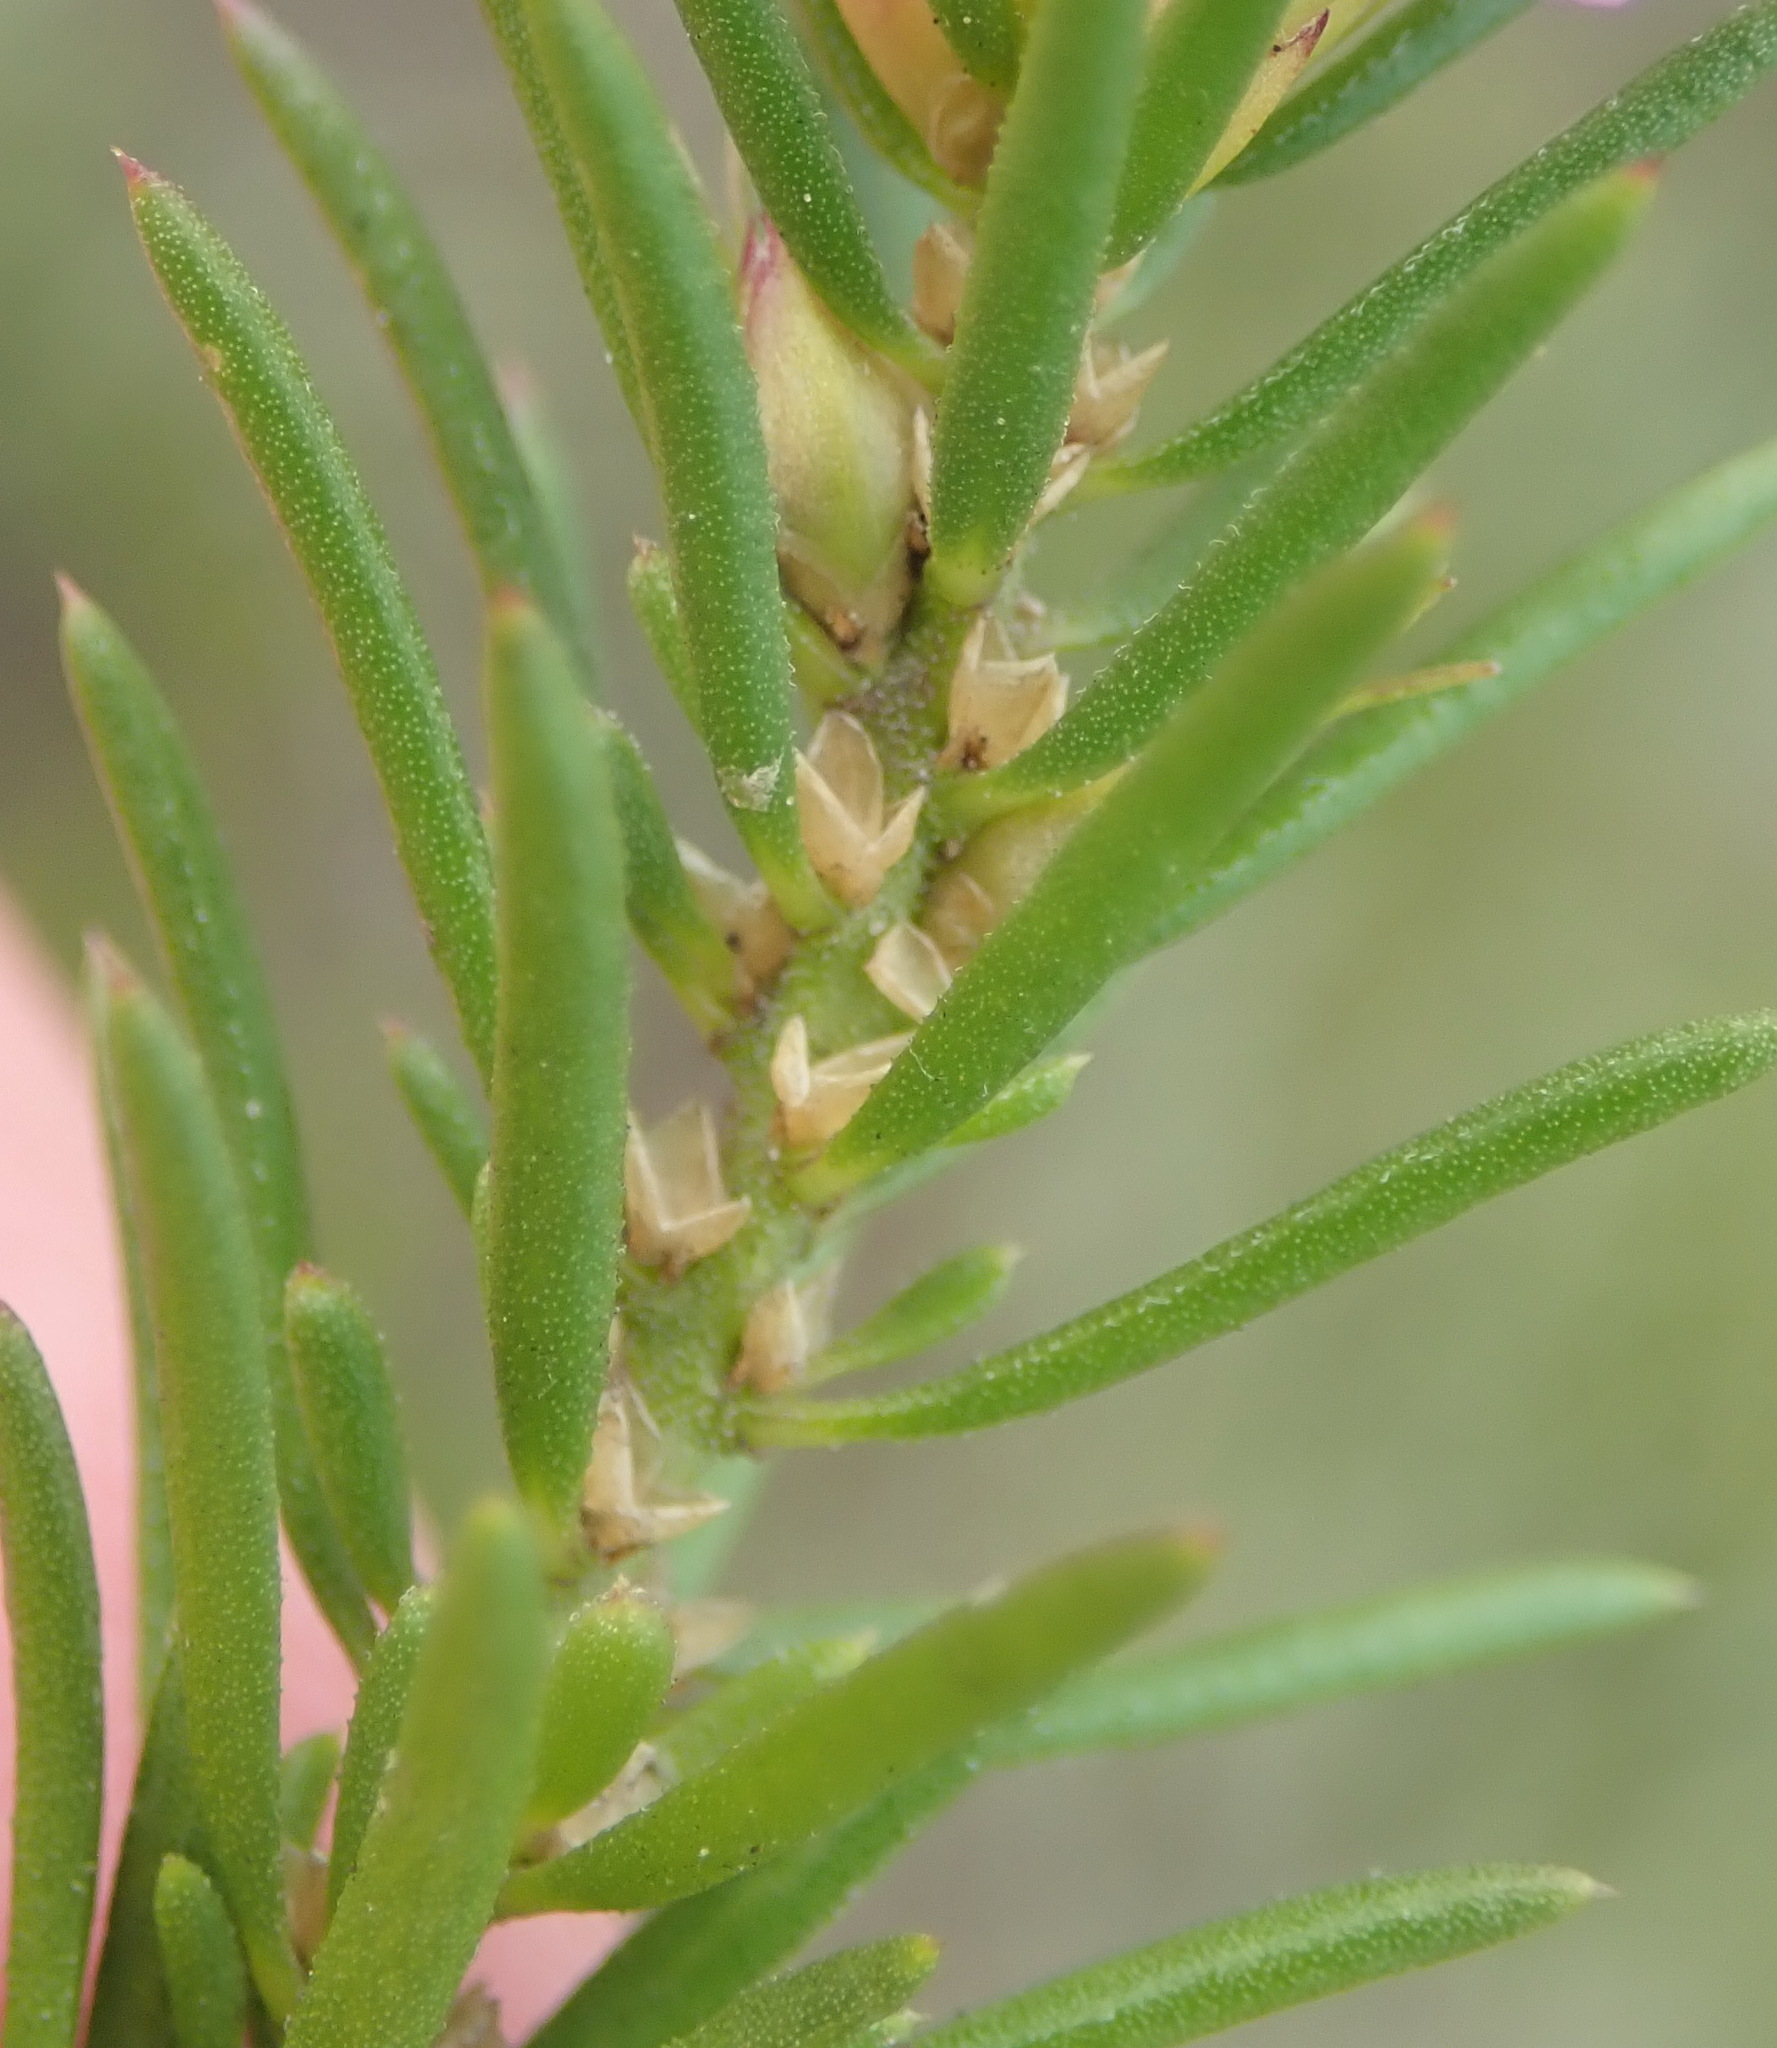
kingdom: Plantae
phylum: Tracheophyta
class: Magnoliopsida
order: Fabales
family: Polygalaceae
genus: Muraltia
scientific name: Muraltia knysnaensis
